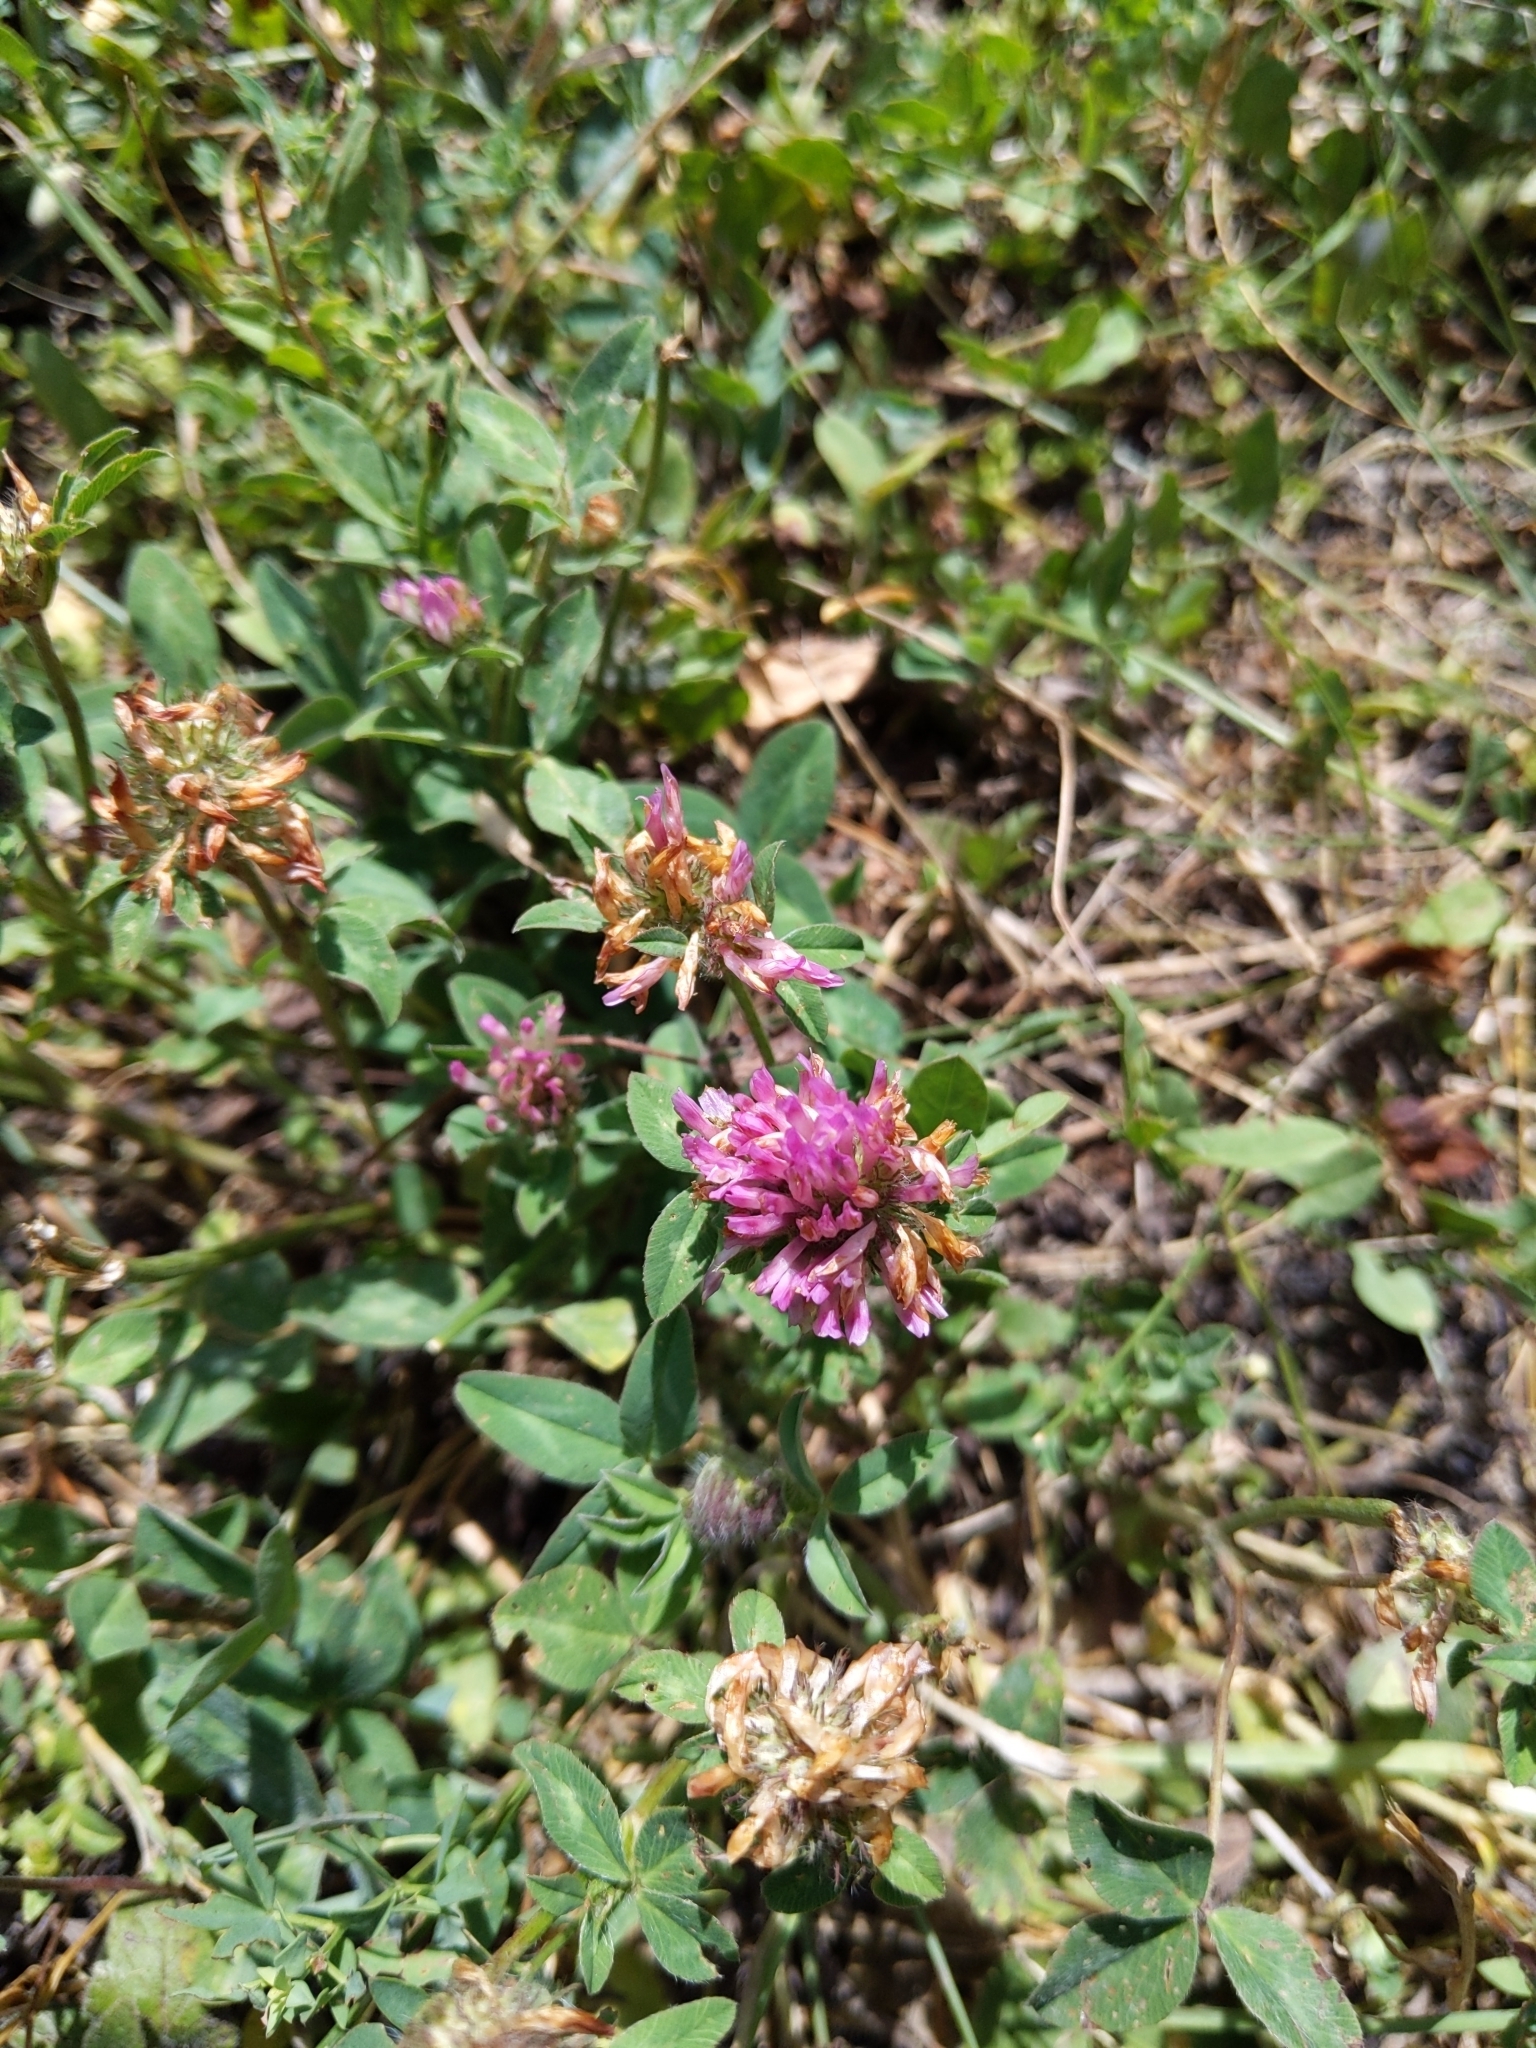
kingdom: Plantae
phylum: Tracheophyta
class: Magnoliopsida
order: Fabales
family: Fabaceae
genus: Trifolium
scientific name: Trifolium pratense
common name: Red clover
